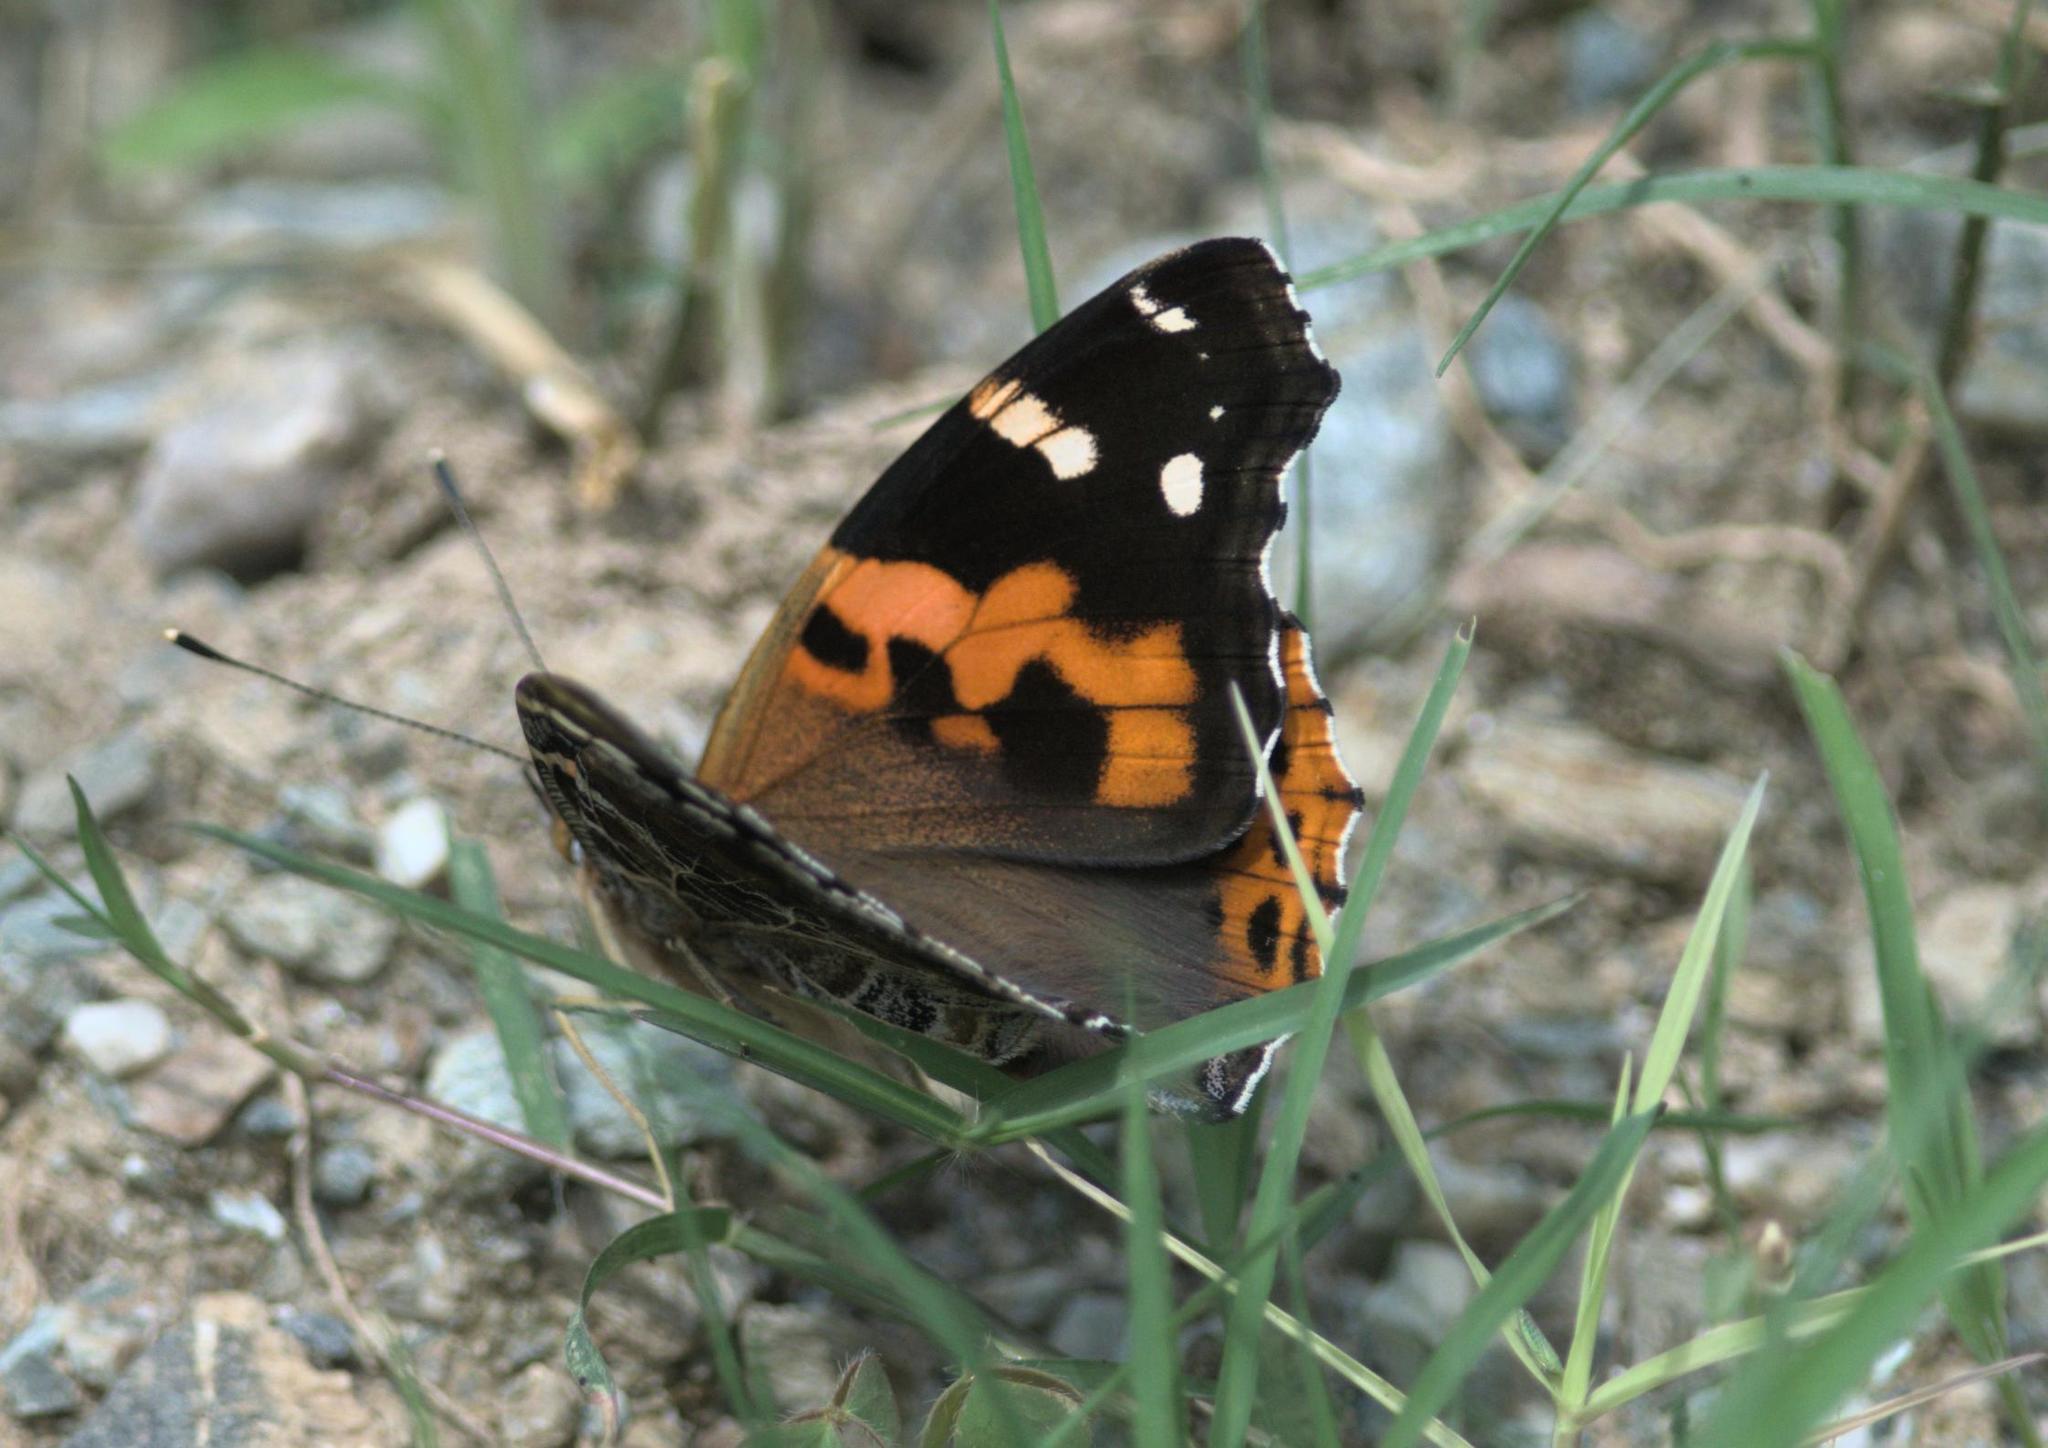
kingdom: Animalia
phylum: Arthropoda
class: Insecta
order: Lepidoptera
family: Nymphalidae
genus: Vanessa
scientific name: Vanessa indica
